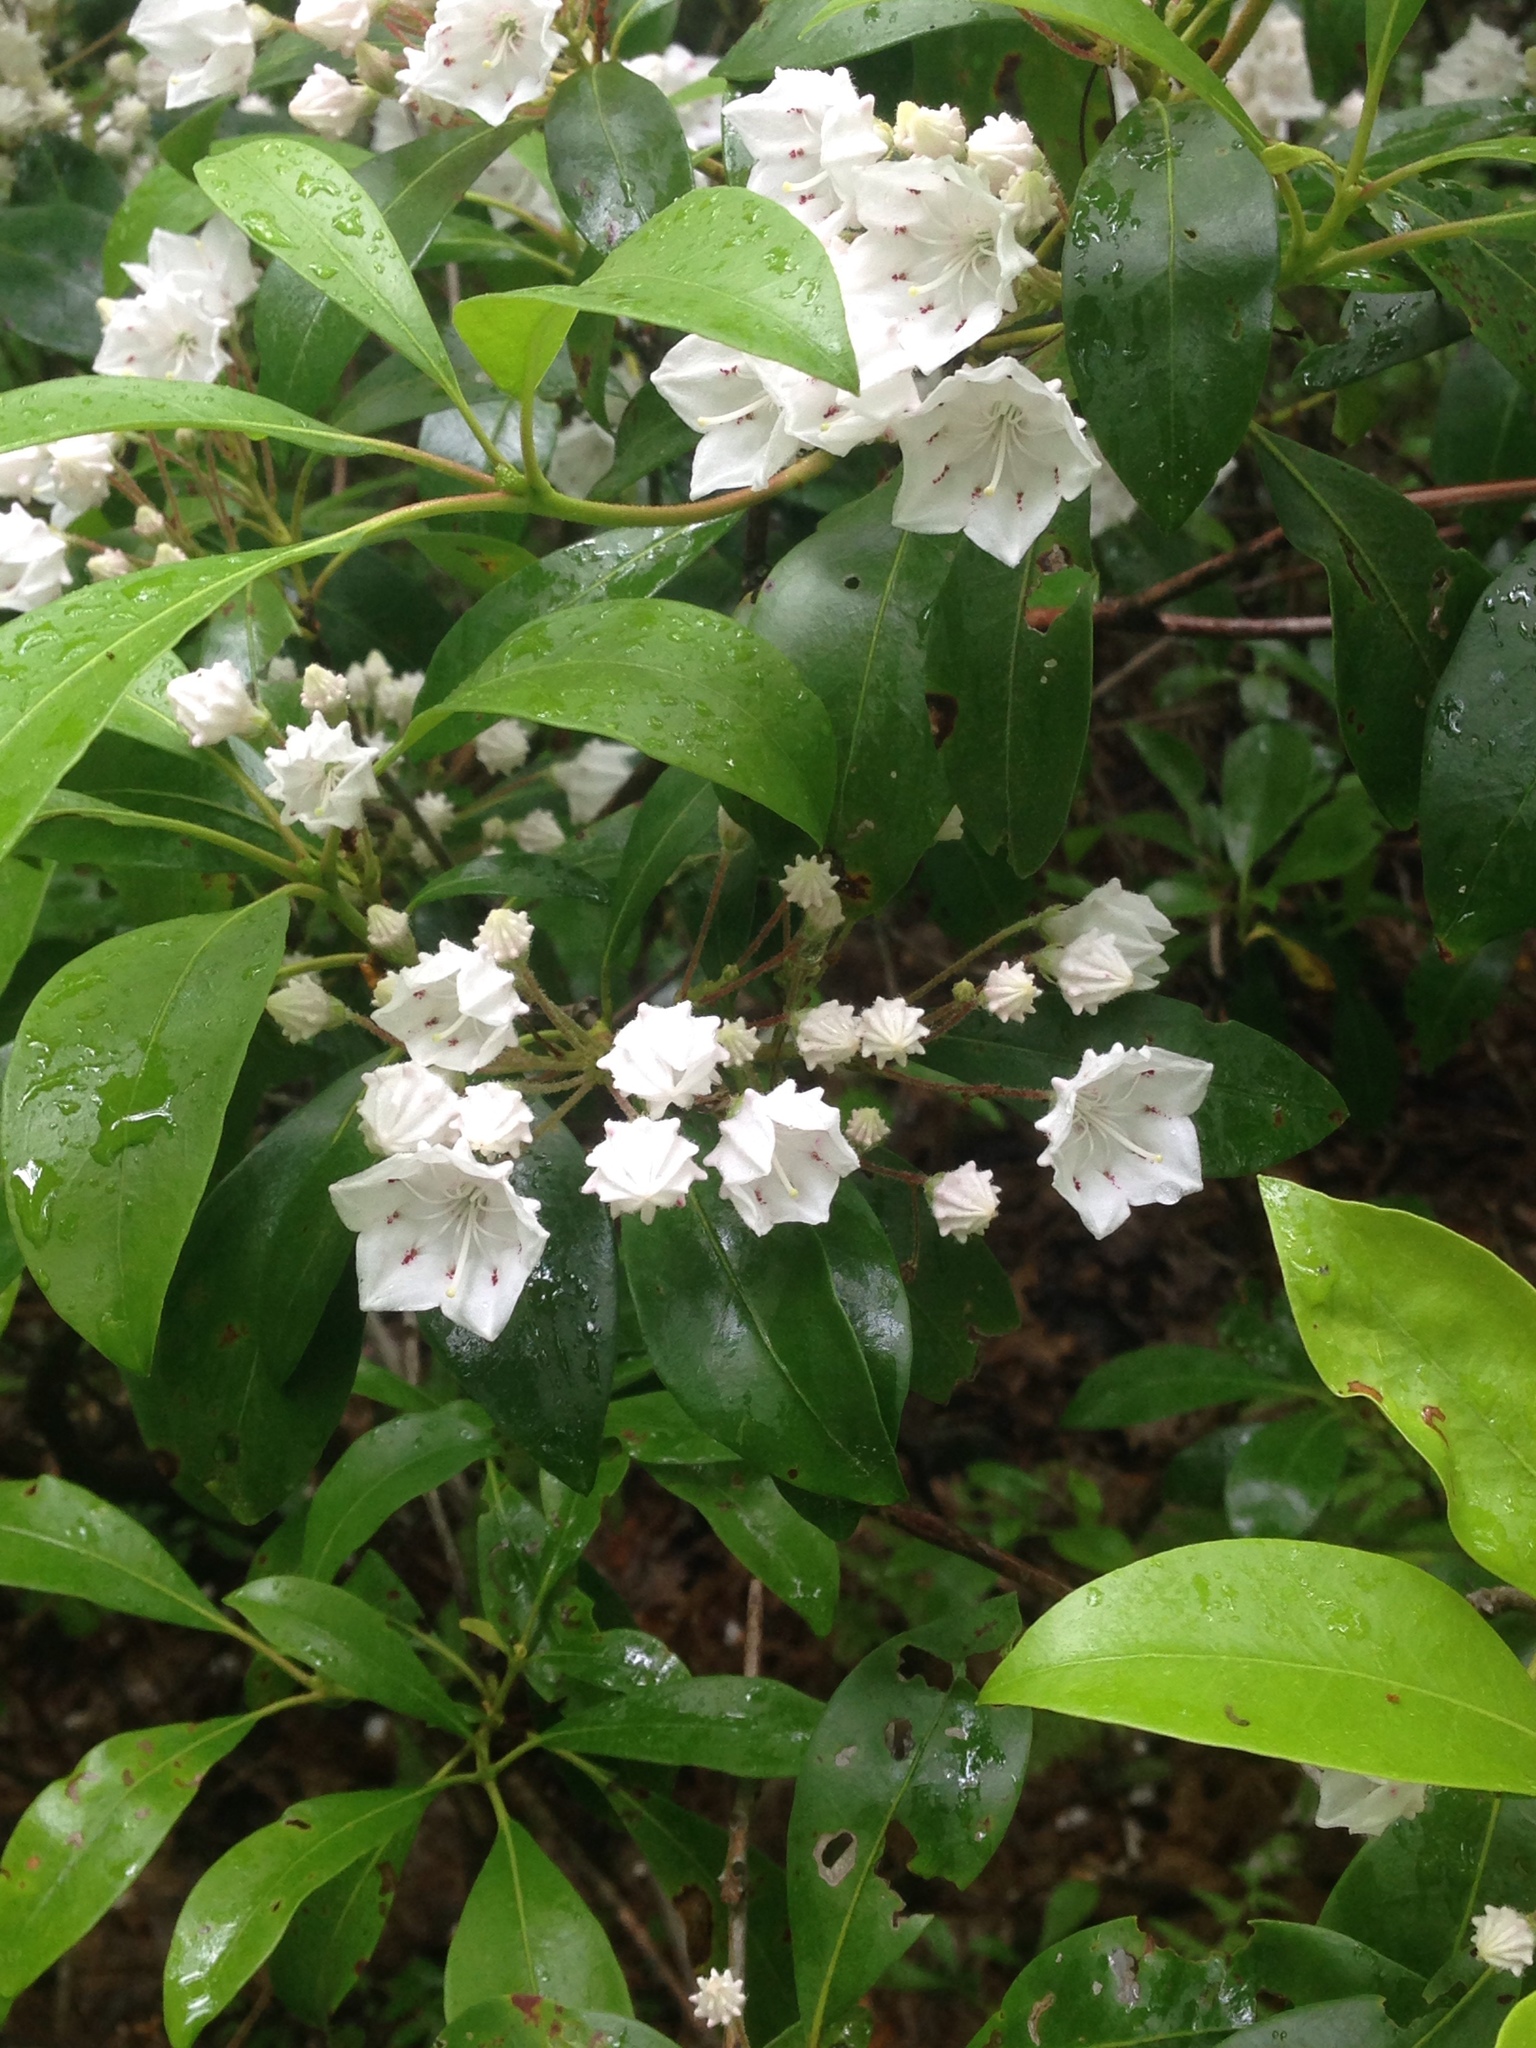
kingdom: Plantae
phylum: Tracheophyta
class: Magnoliopsida
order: Ericales
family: Ericaceae
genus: Kalmia
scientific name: Kalmia latifolia
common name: Mountain-laurel
